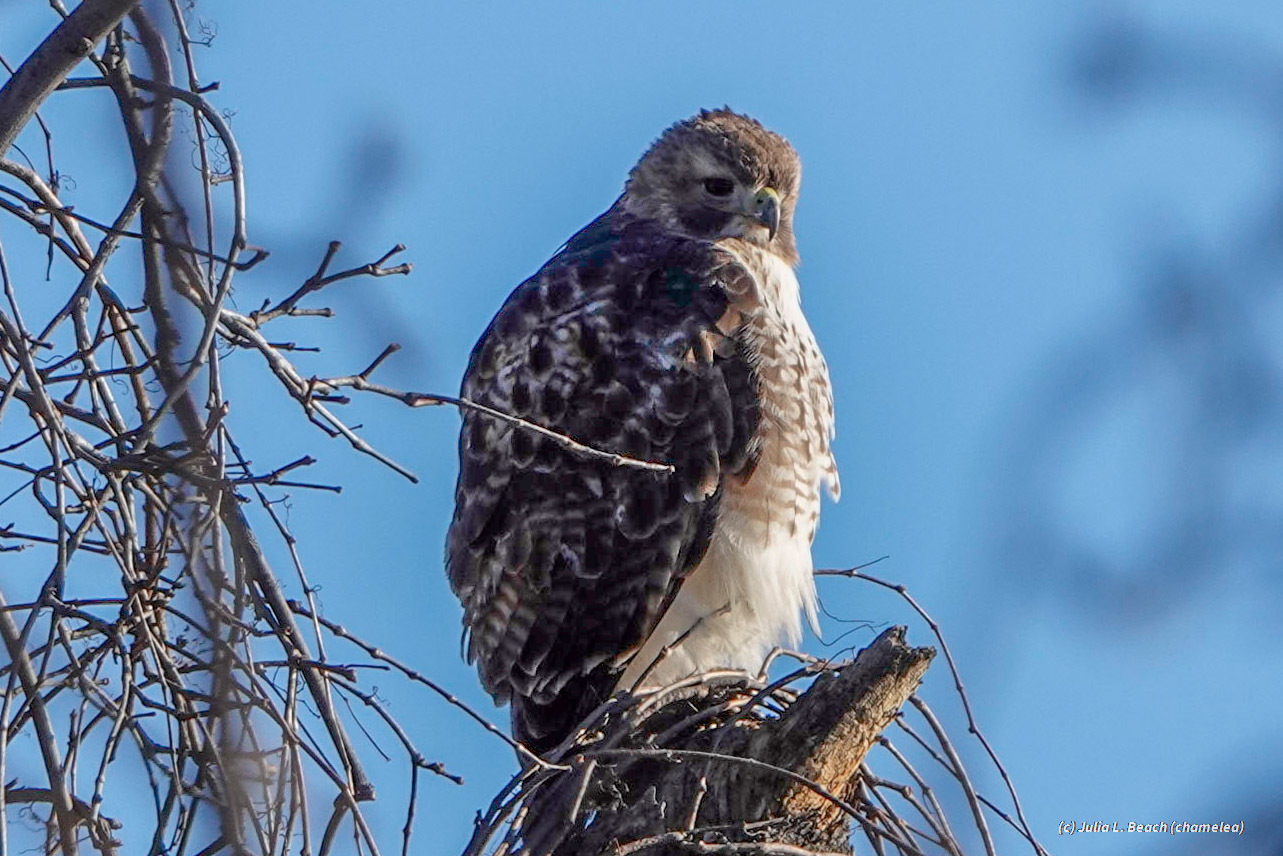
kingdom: Animalia
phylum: Chordata
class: Aves
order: Accipitriformes
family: Accipitridae
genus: Buteo
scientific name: Buteo jamaicensis
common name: Red-tailed hawk
